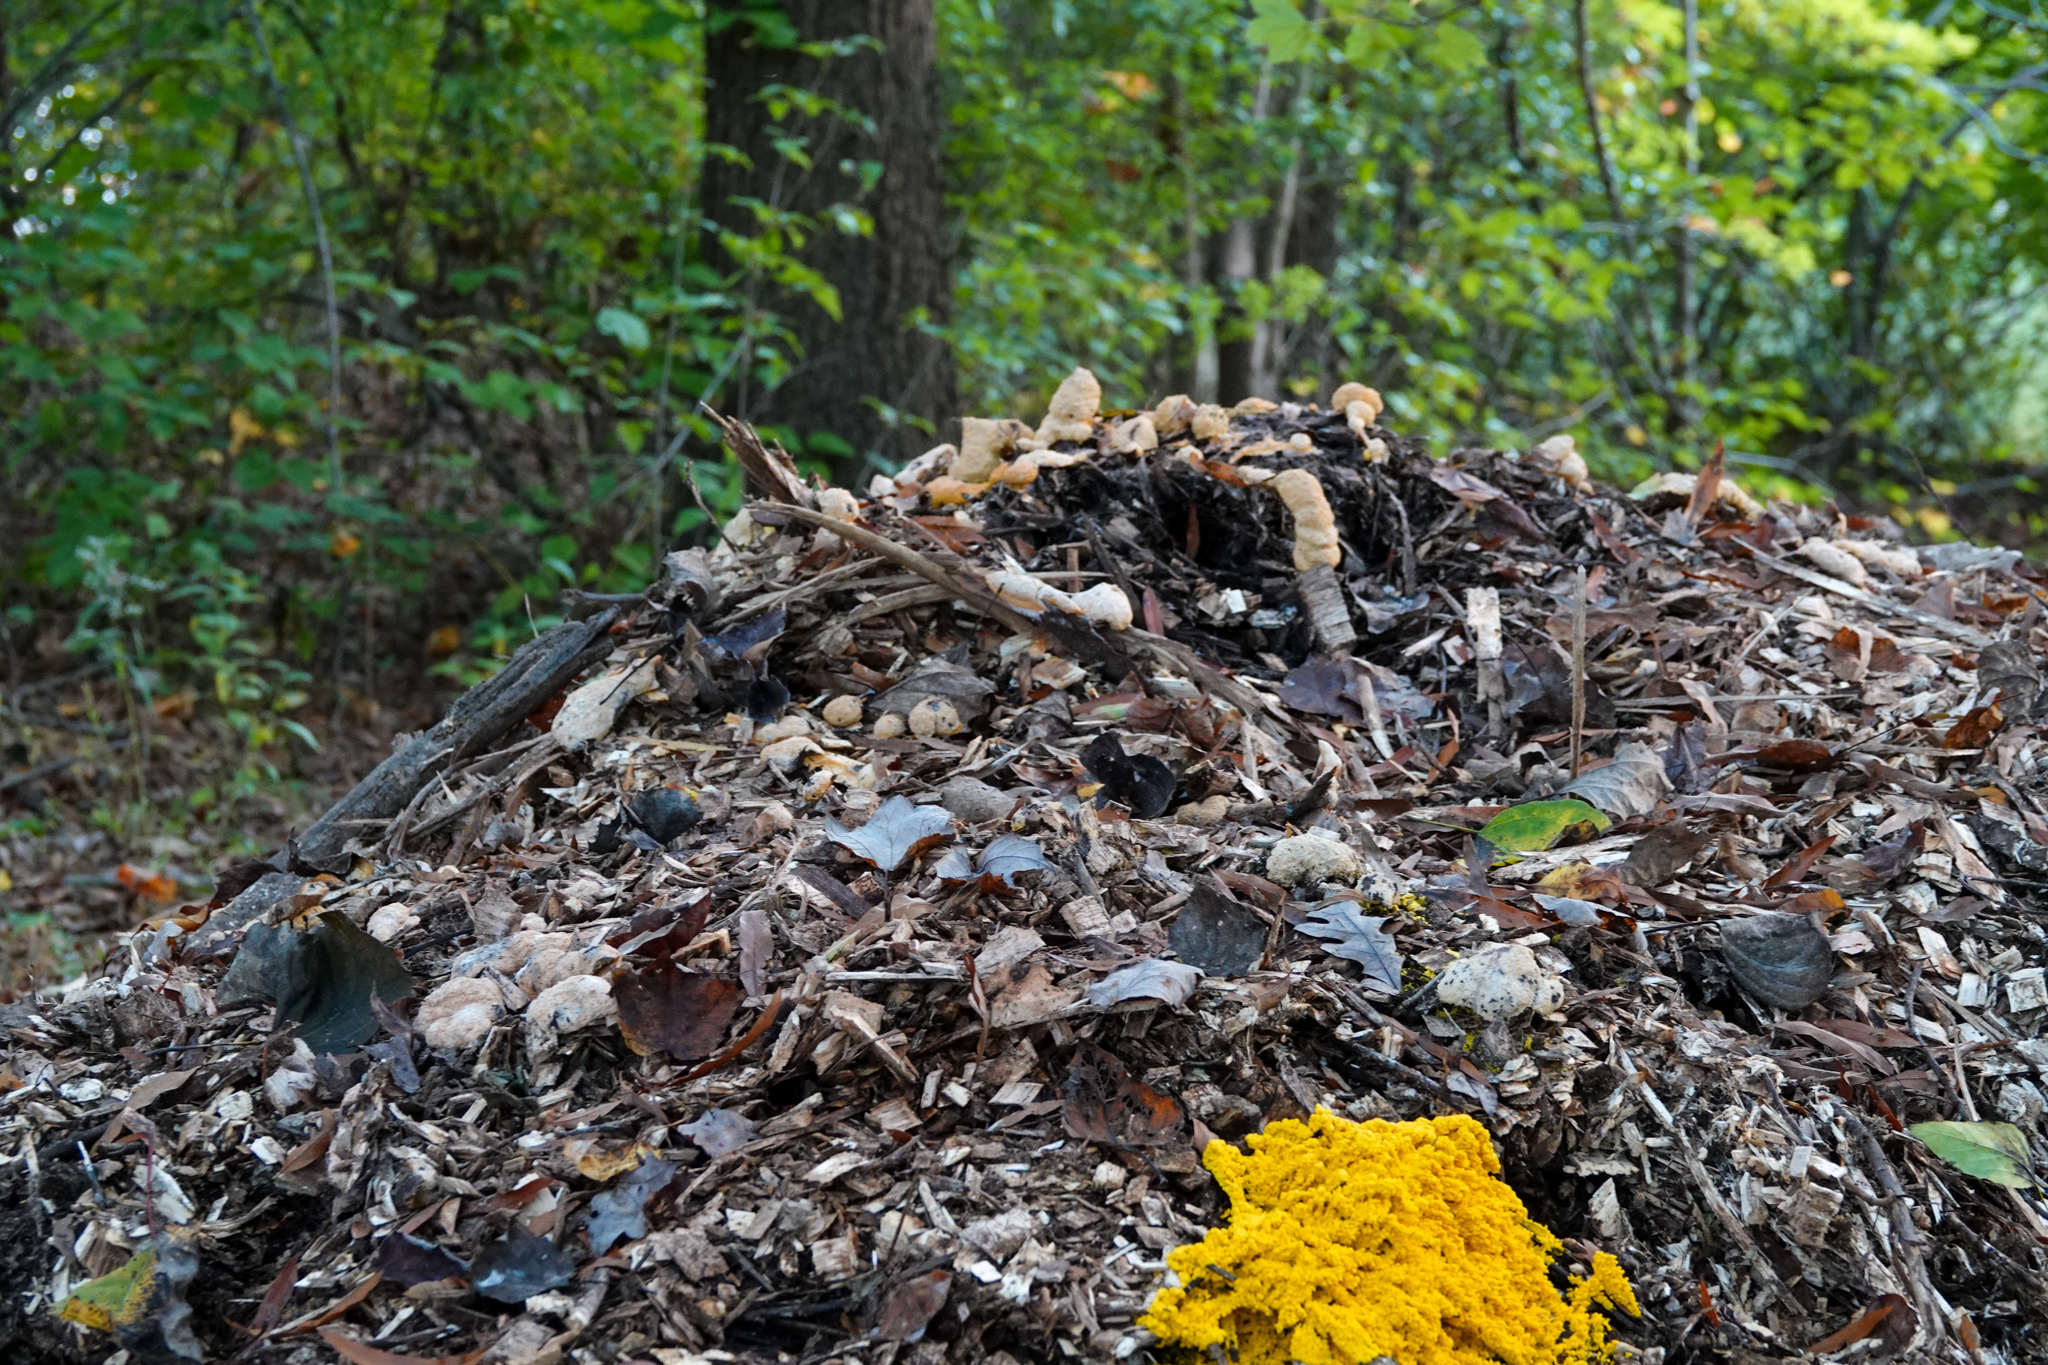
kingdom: Protozoa
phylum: Mycetozoa
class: Myxomycetes
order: Physarales
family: Physaraceae
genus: Fuligo
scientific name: Fuligo septica
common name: Dog vomit slime mold
